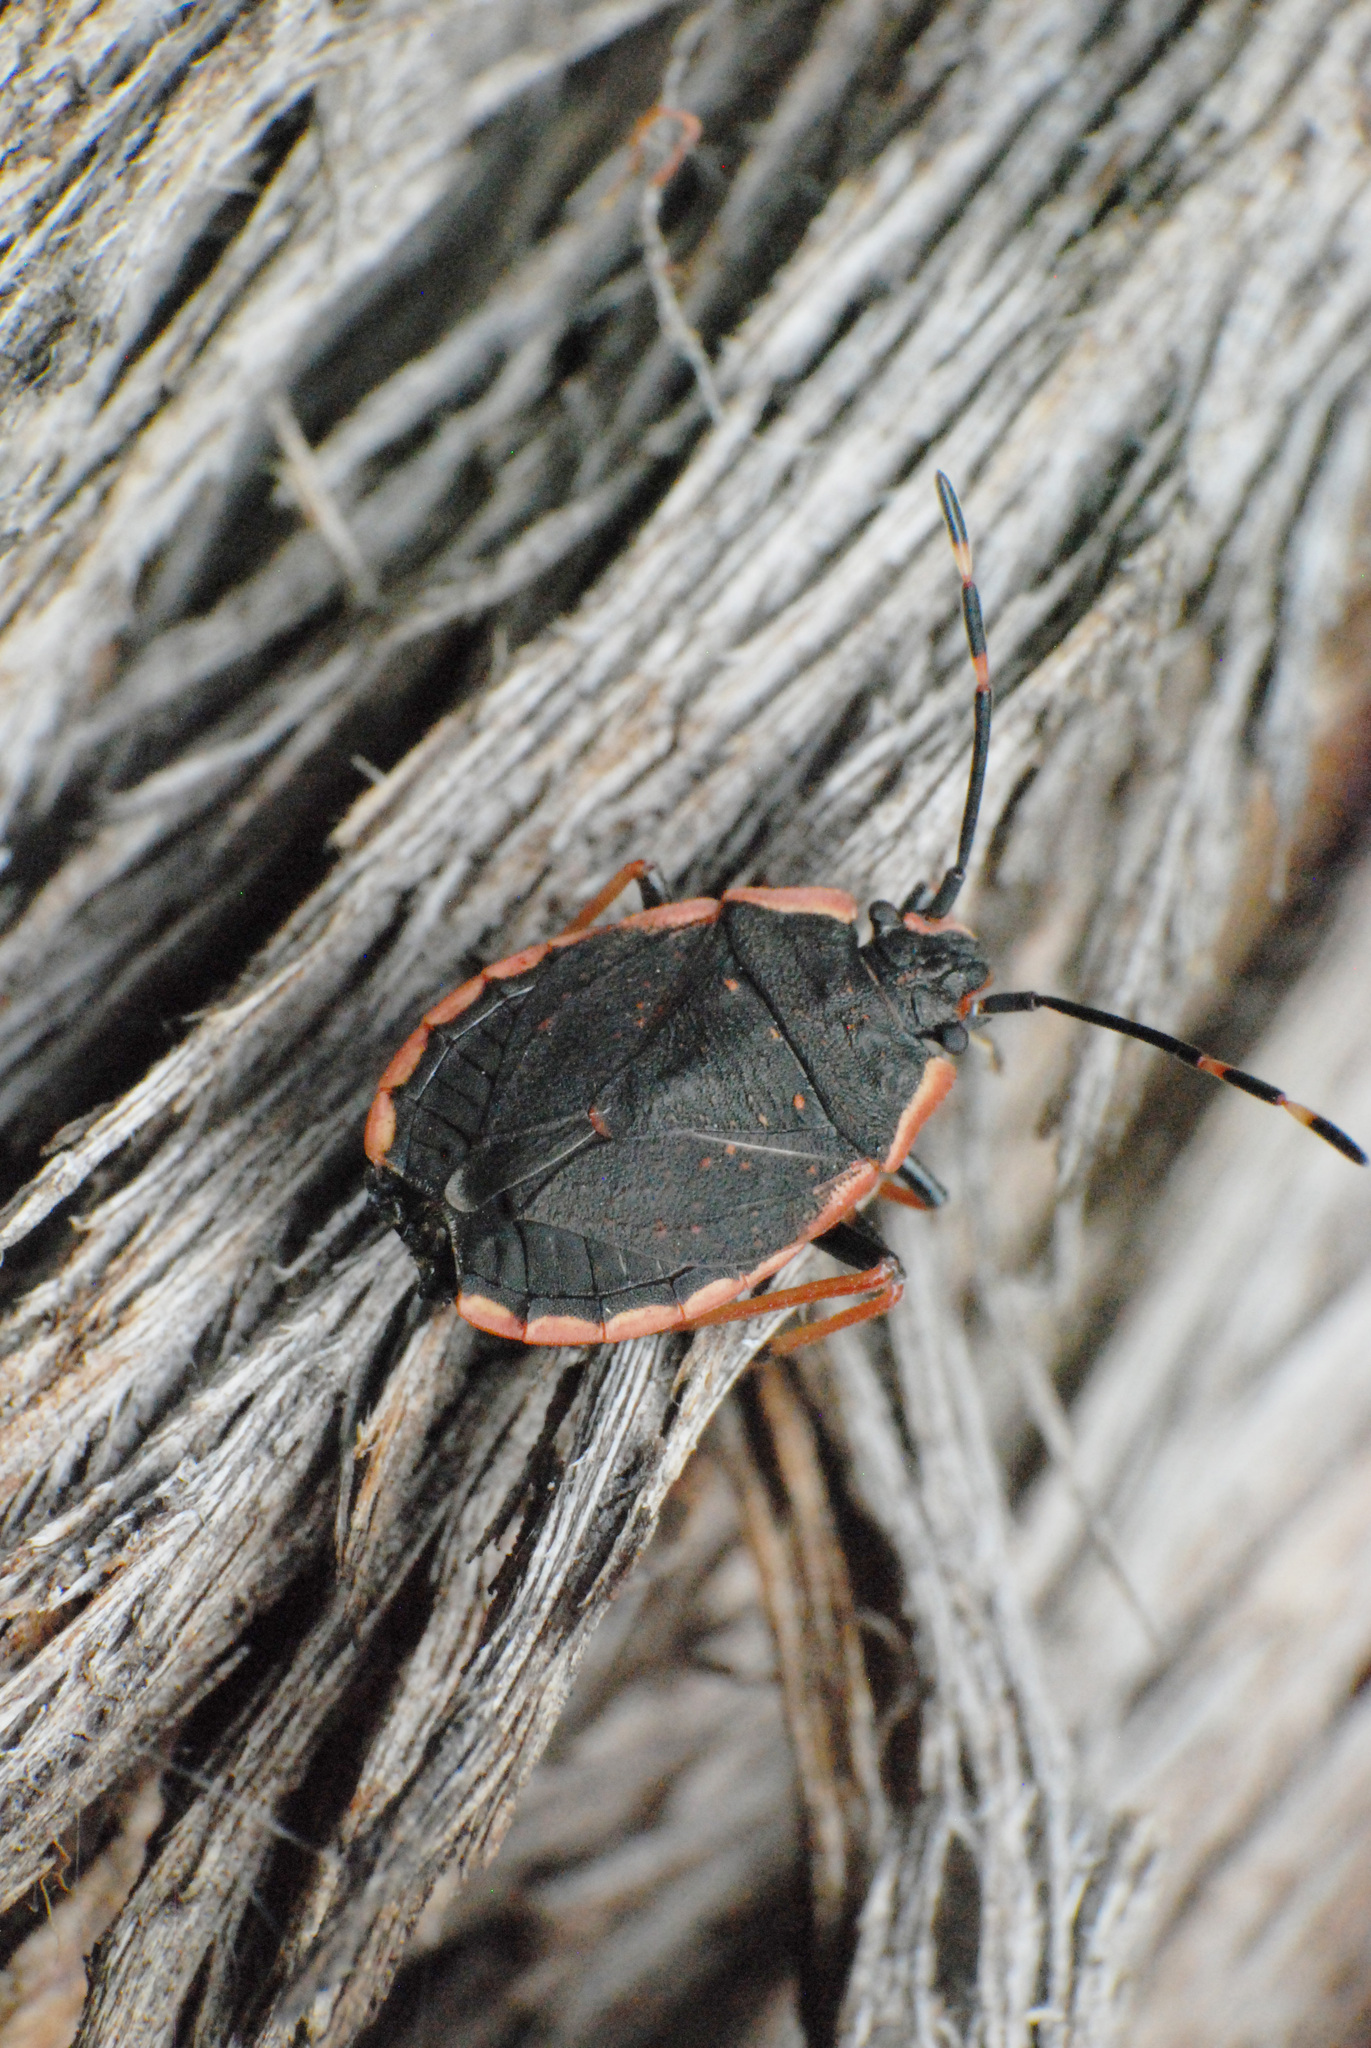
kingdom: Animalia
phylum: Arthropoda
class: Insecta
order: Hemiptera
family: Pentatomidae
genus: Diemenia
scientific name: Diemenia
